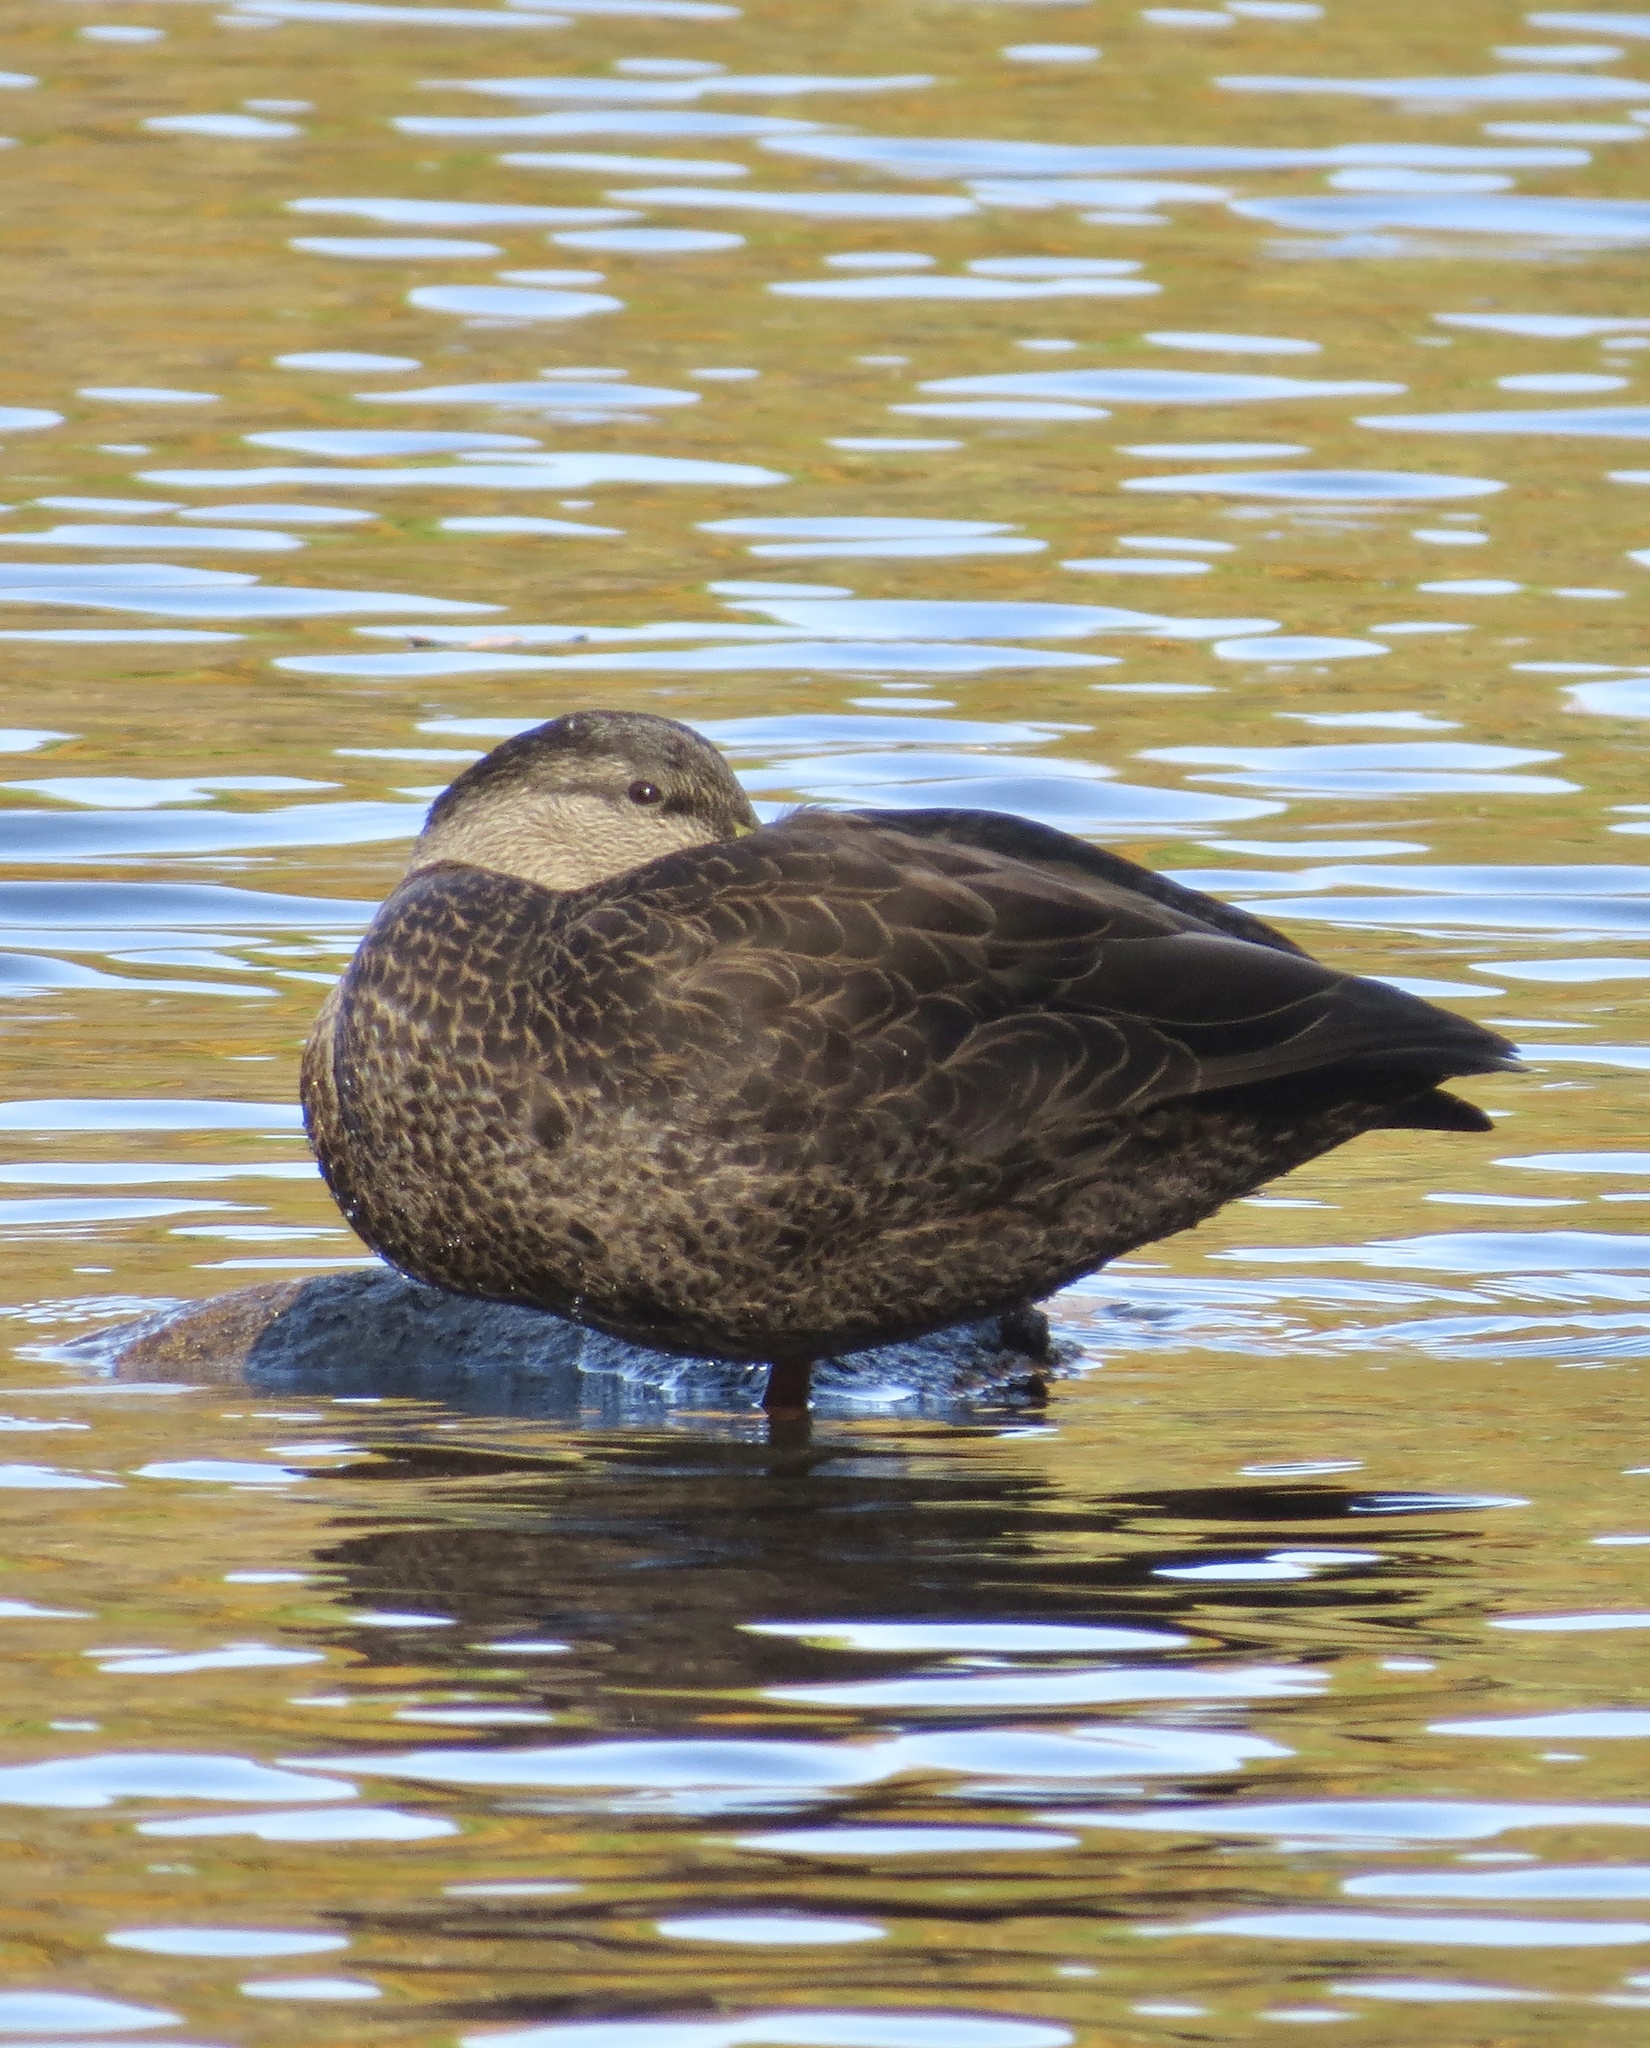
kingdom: Animalia
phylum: Chordata
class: Aves
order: Anseriformes
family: Anatidae
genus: Anas
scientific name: Anas rubripes
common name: American black duck
